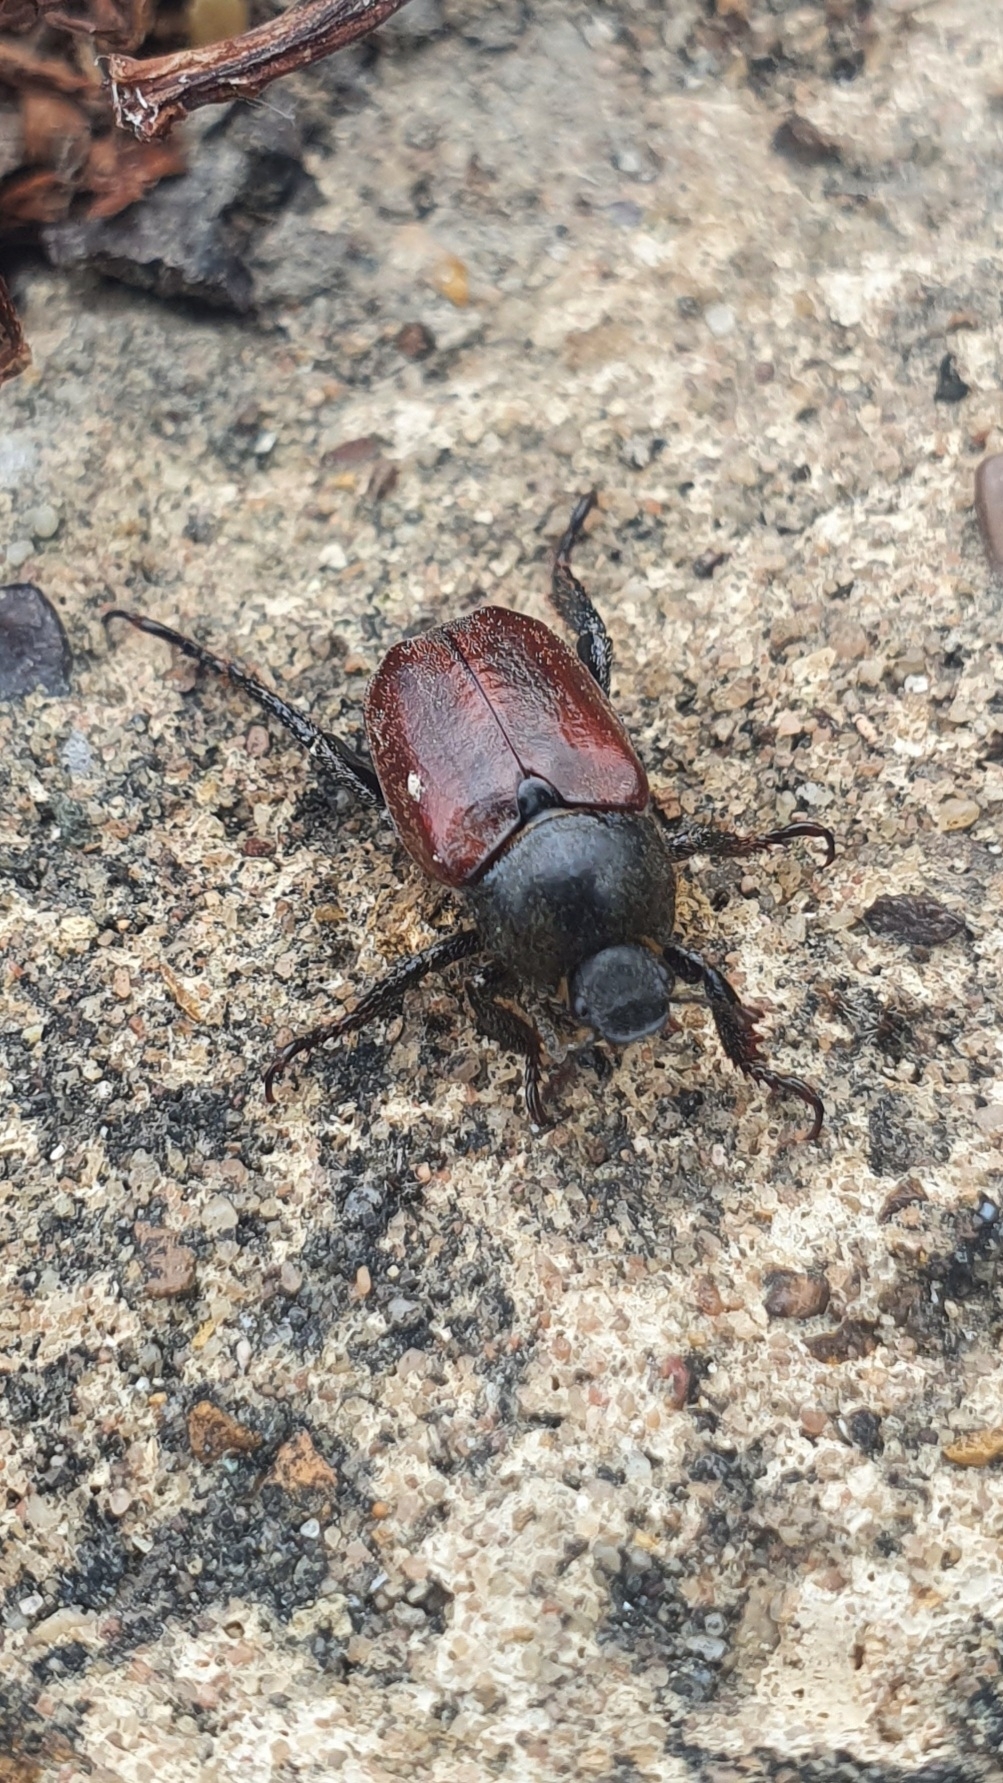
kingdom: Animalia
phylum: Arthropoda
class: Insecta
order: Coleoptera
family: Scarabaeidae
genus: Hoplia
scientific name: Hoplia philanthus
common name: Welsh chafer
